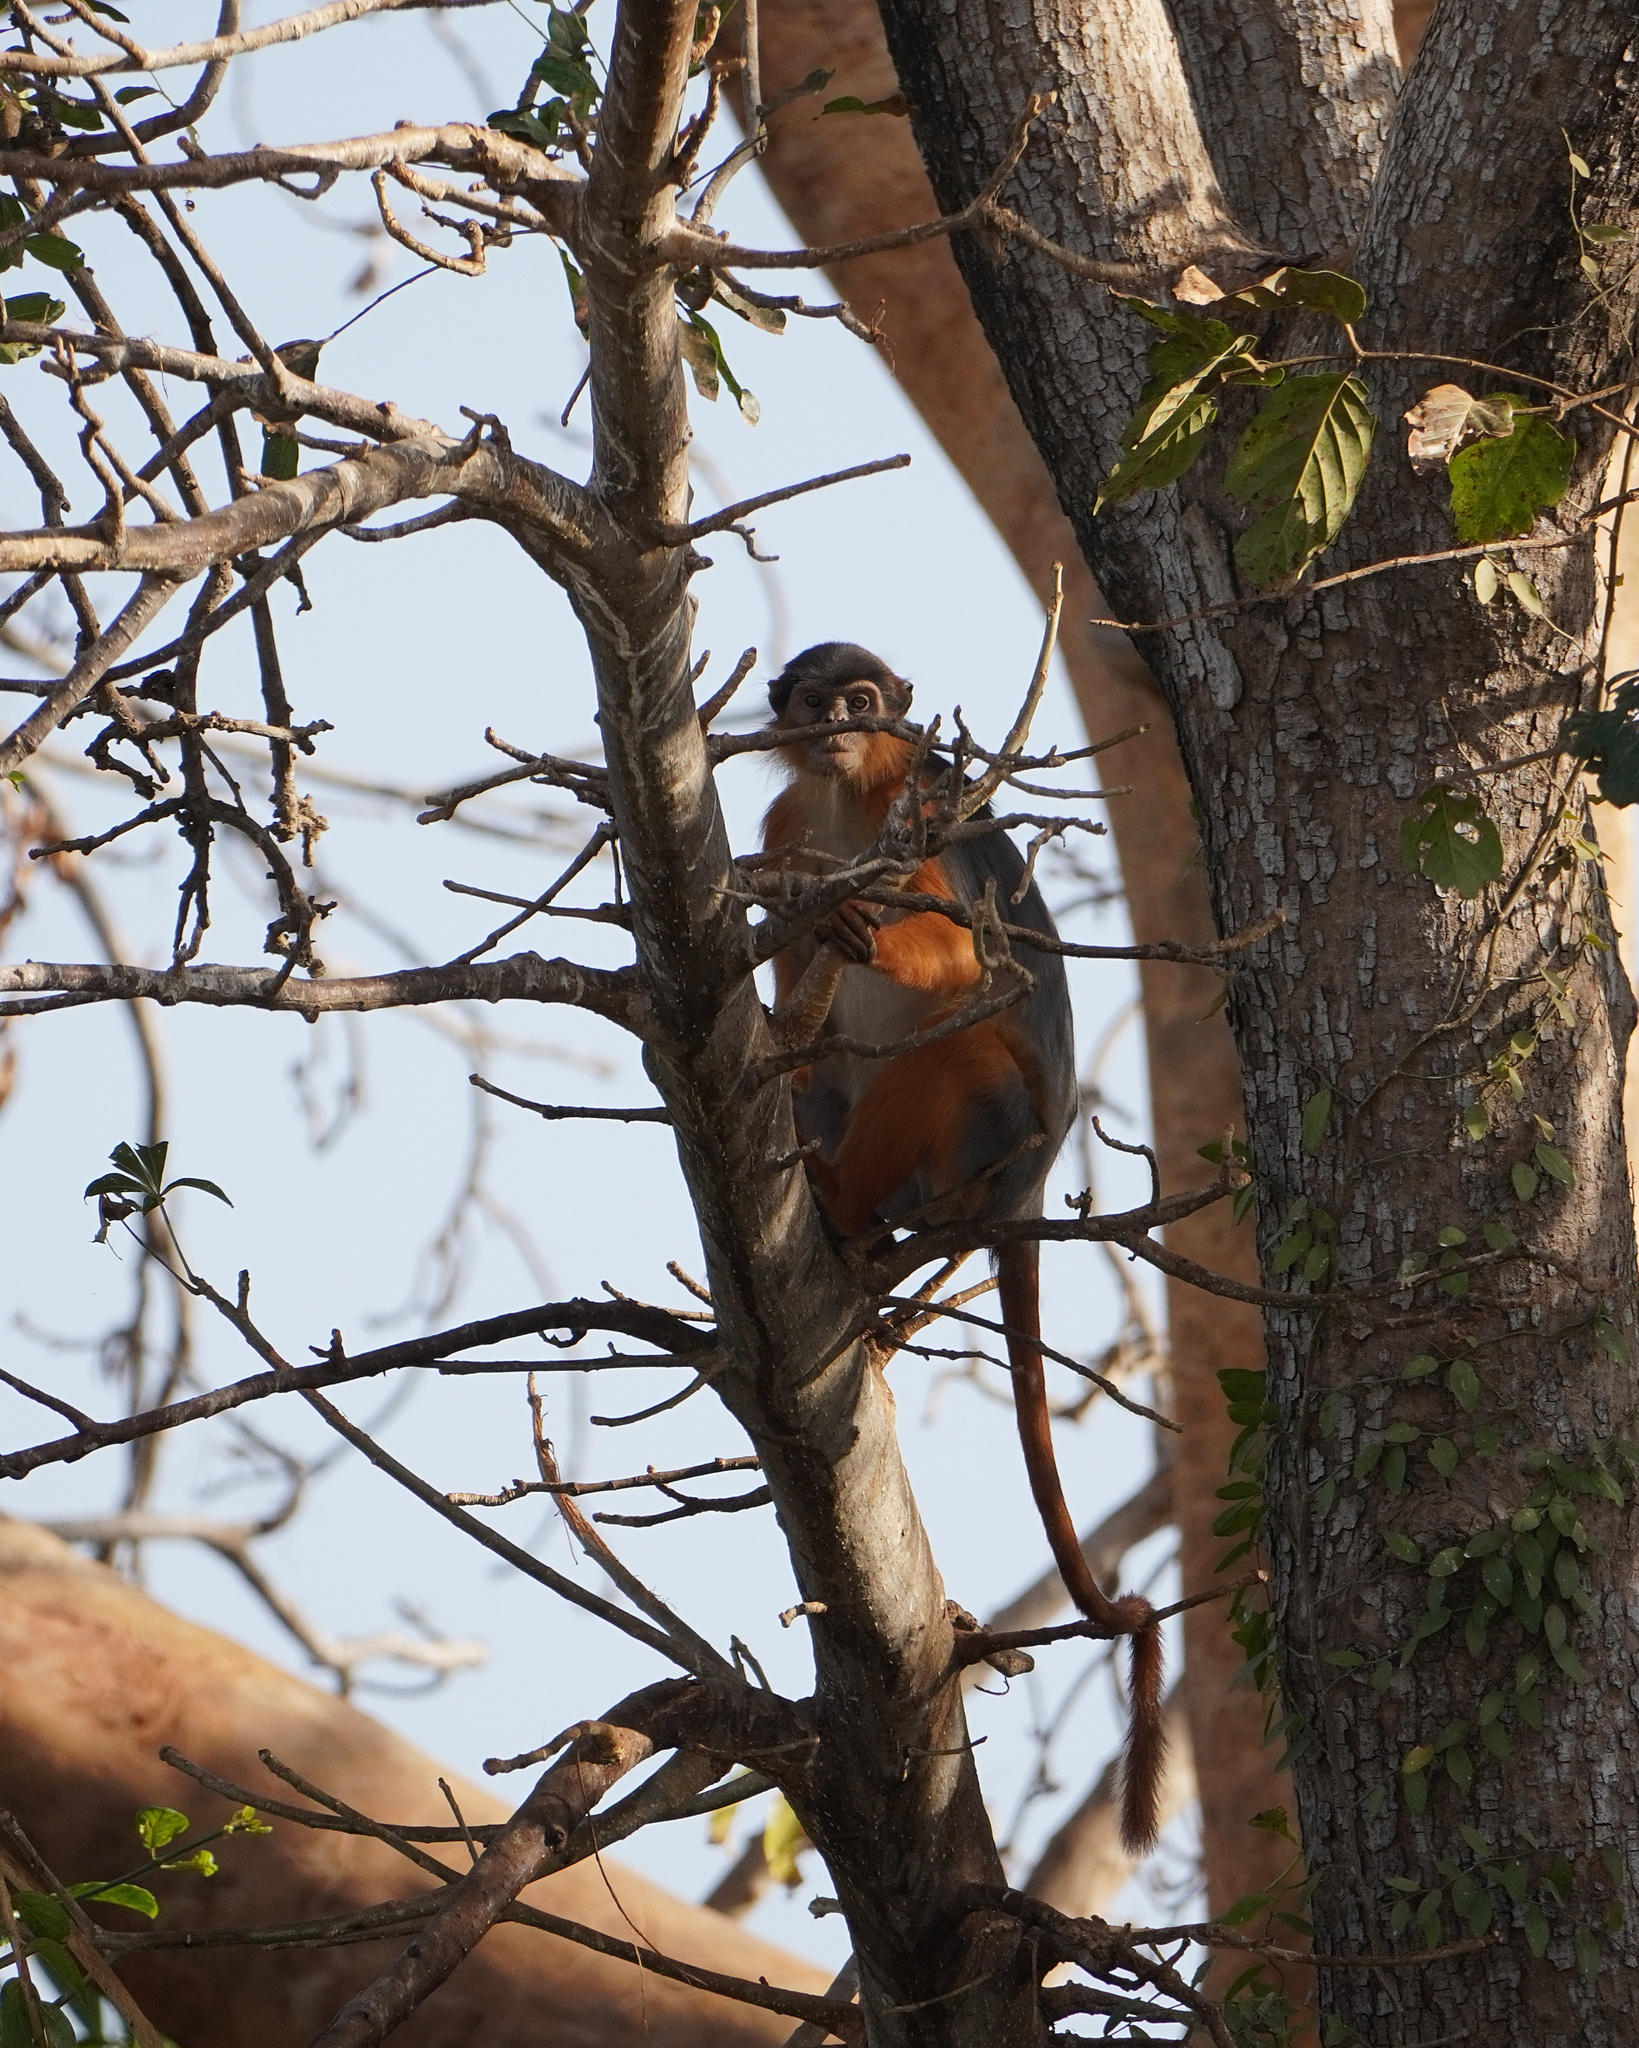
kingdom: Animalia
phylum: Chordata
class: Mammalia
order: Primates
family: Cercopithecidae
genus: Piliocolobus
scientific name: Piliocolobus badius
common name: Western red colobus
